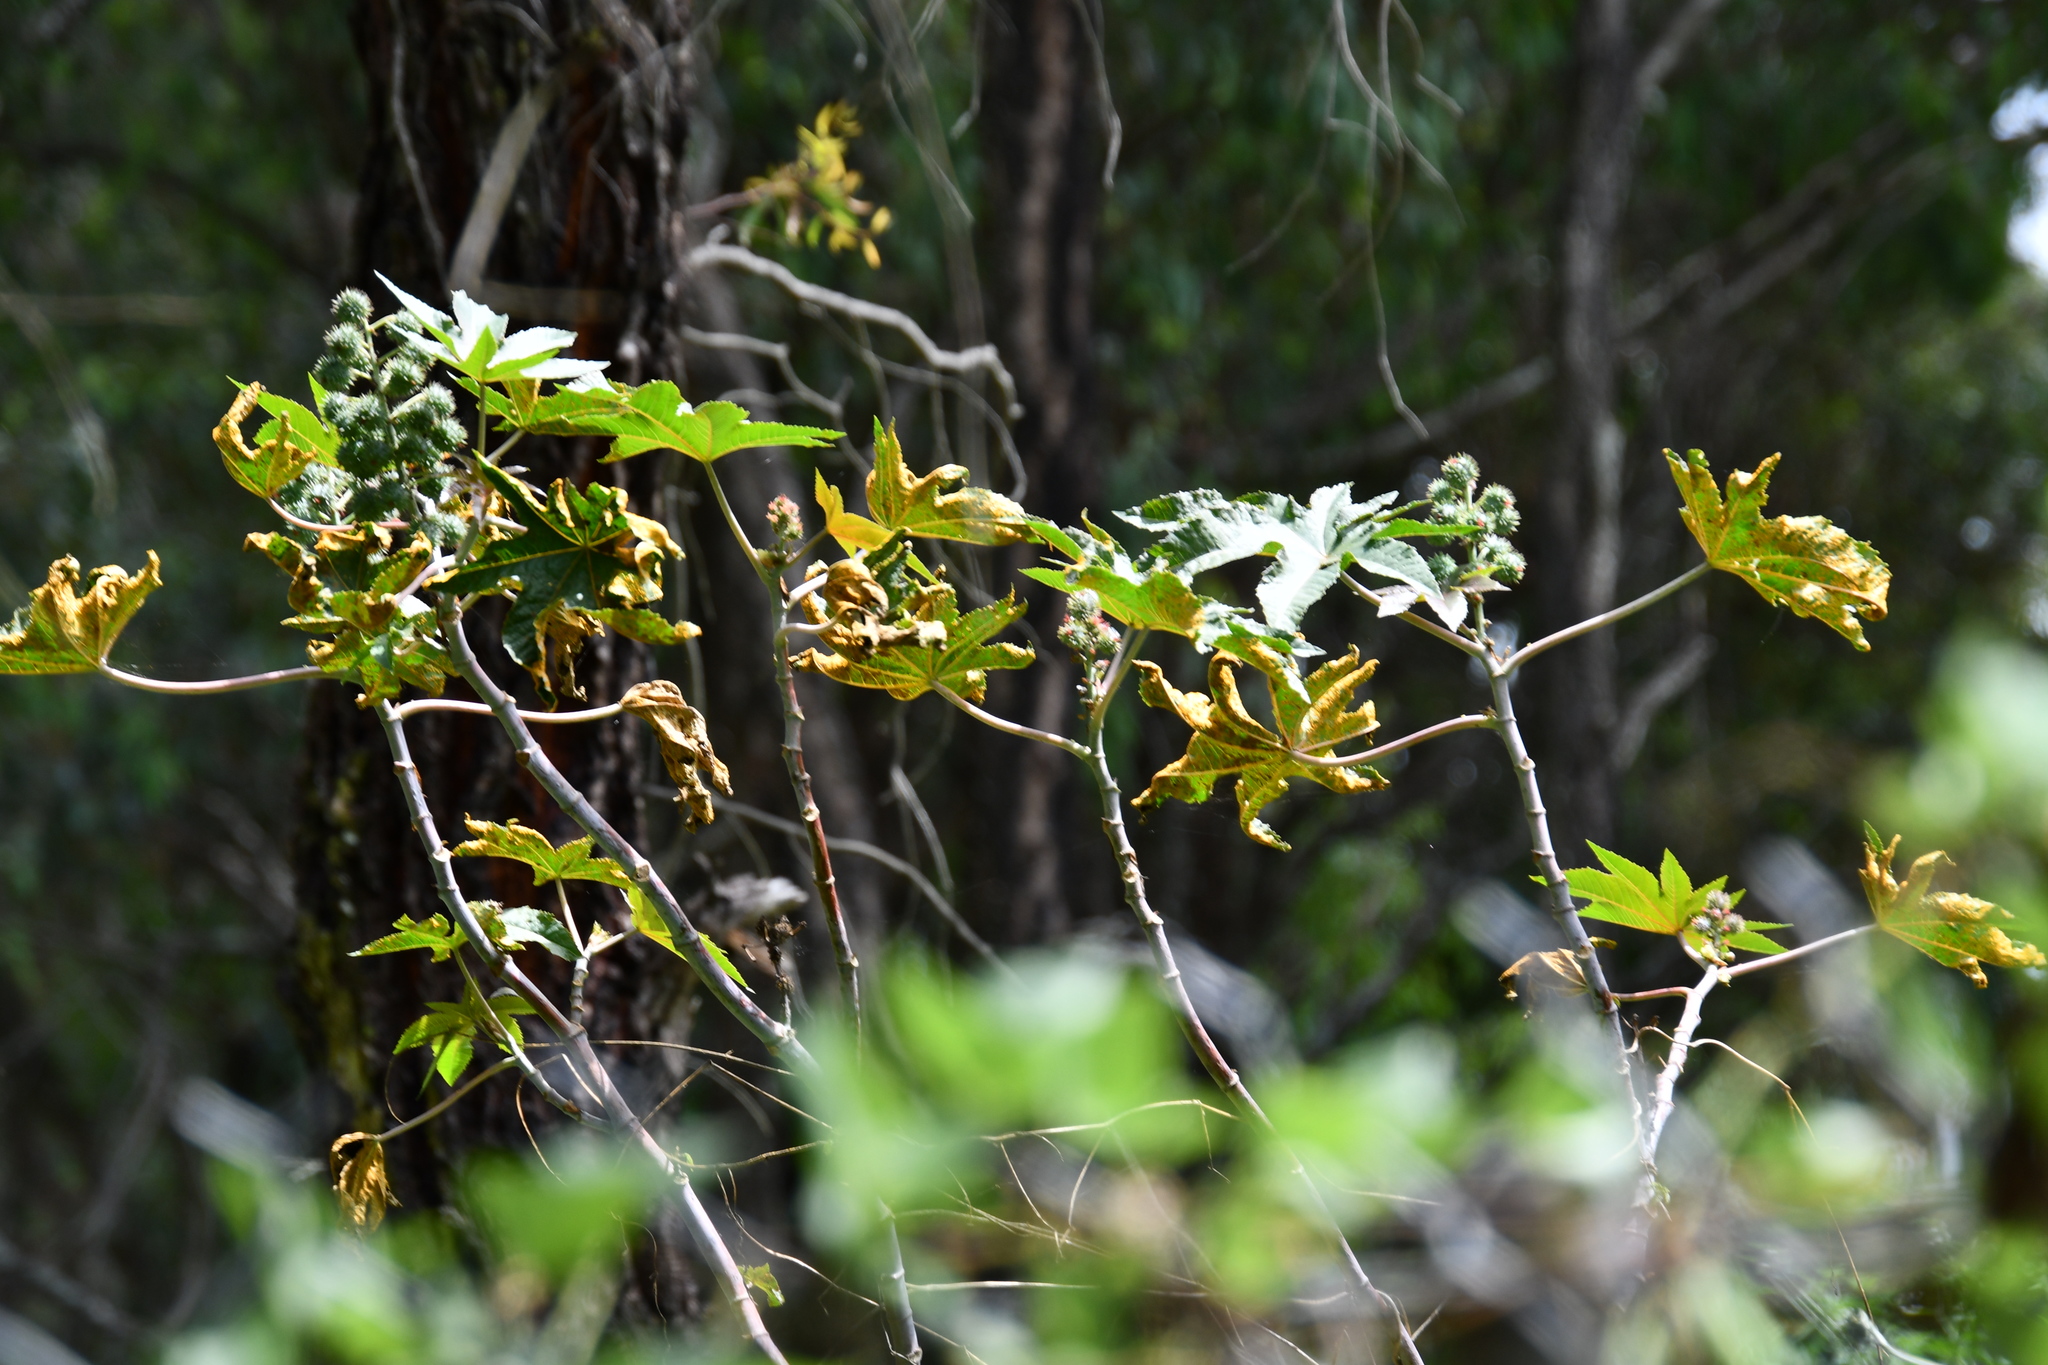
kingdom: Plantae
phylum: Tracheophyta
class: Magnoliopsida
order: Malpighiales
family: Euphorbiaceae
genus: Ricinus
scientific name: Ricinus communis
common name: Castor-oil-plant
